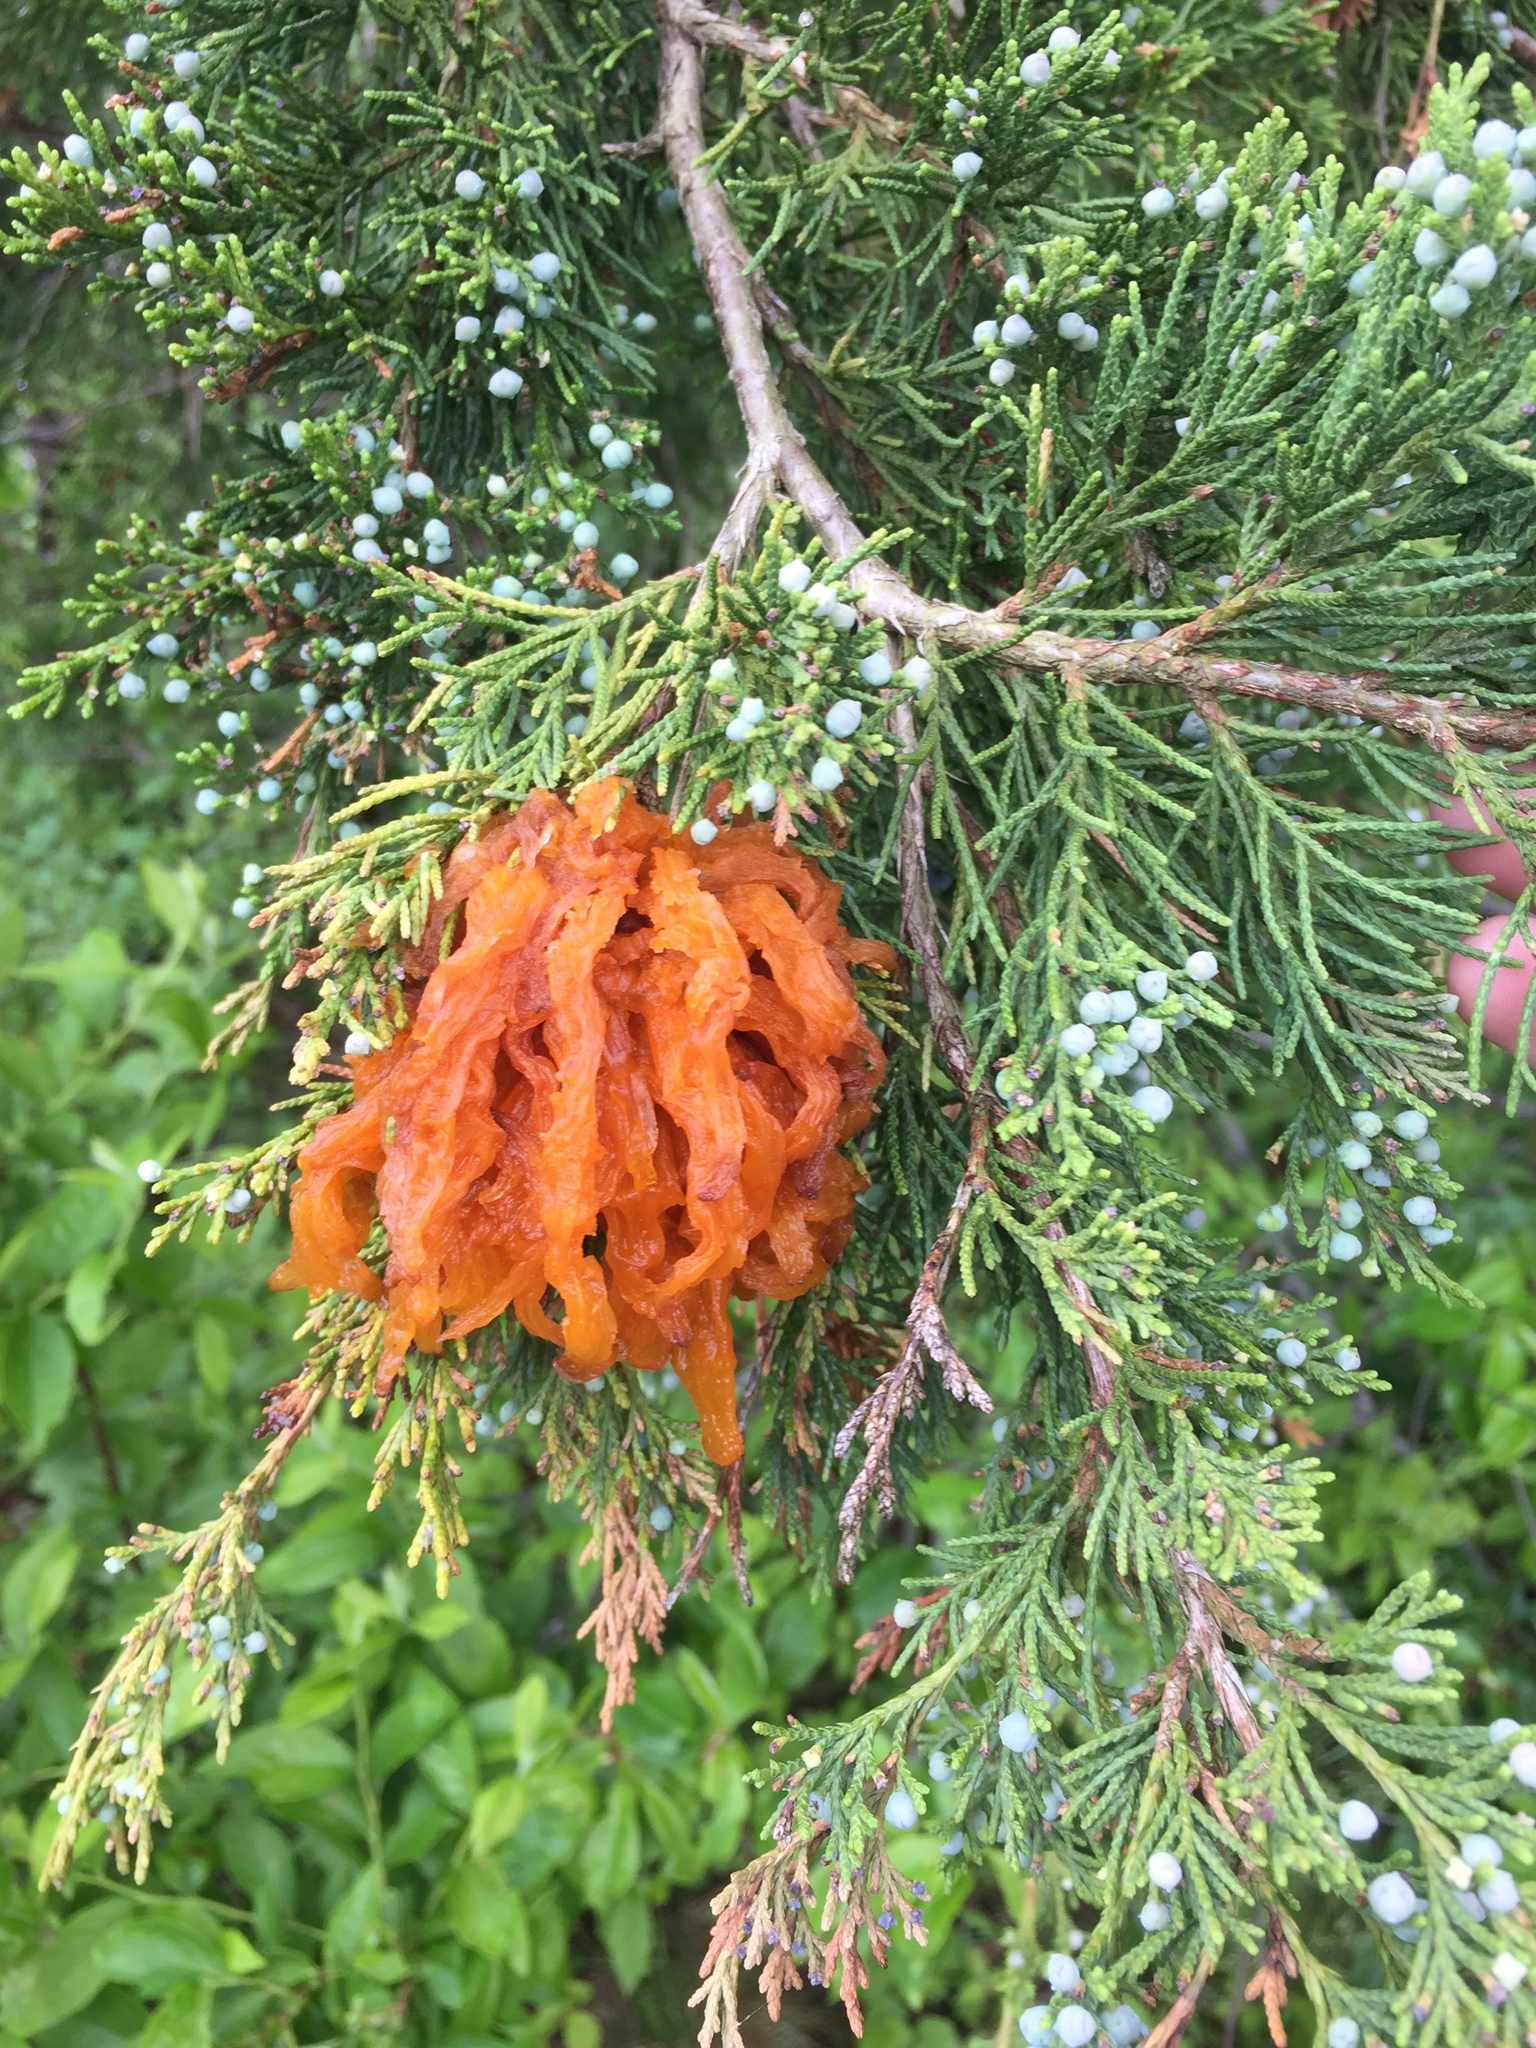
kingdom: Fungi
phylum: Basidiomycota
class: Pucciniomycetes
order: Pucciniales
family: Gymnosporangiaceae
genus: Gymnosporangium
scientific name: Gymnosporangium juniperi-virginianae
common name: Juniper-apple rust
